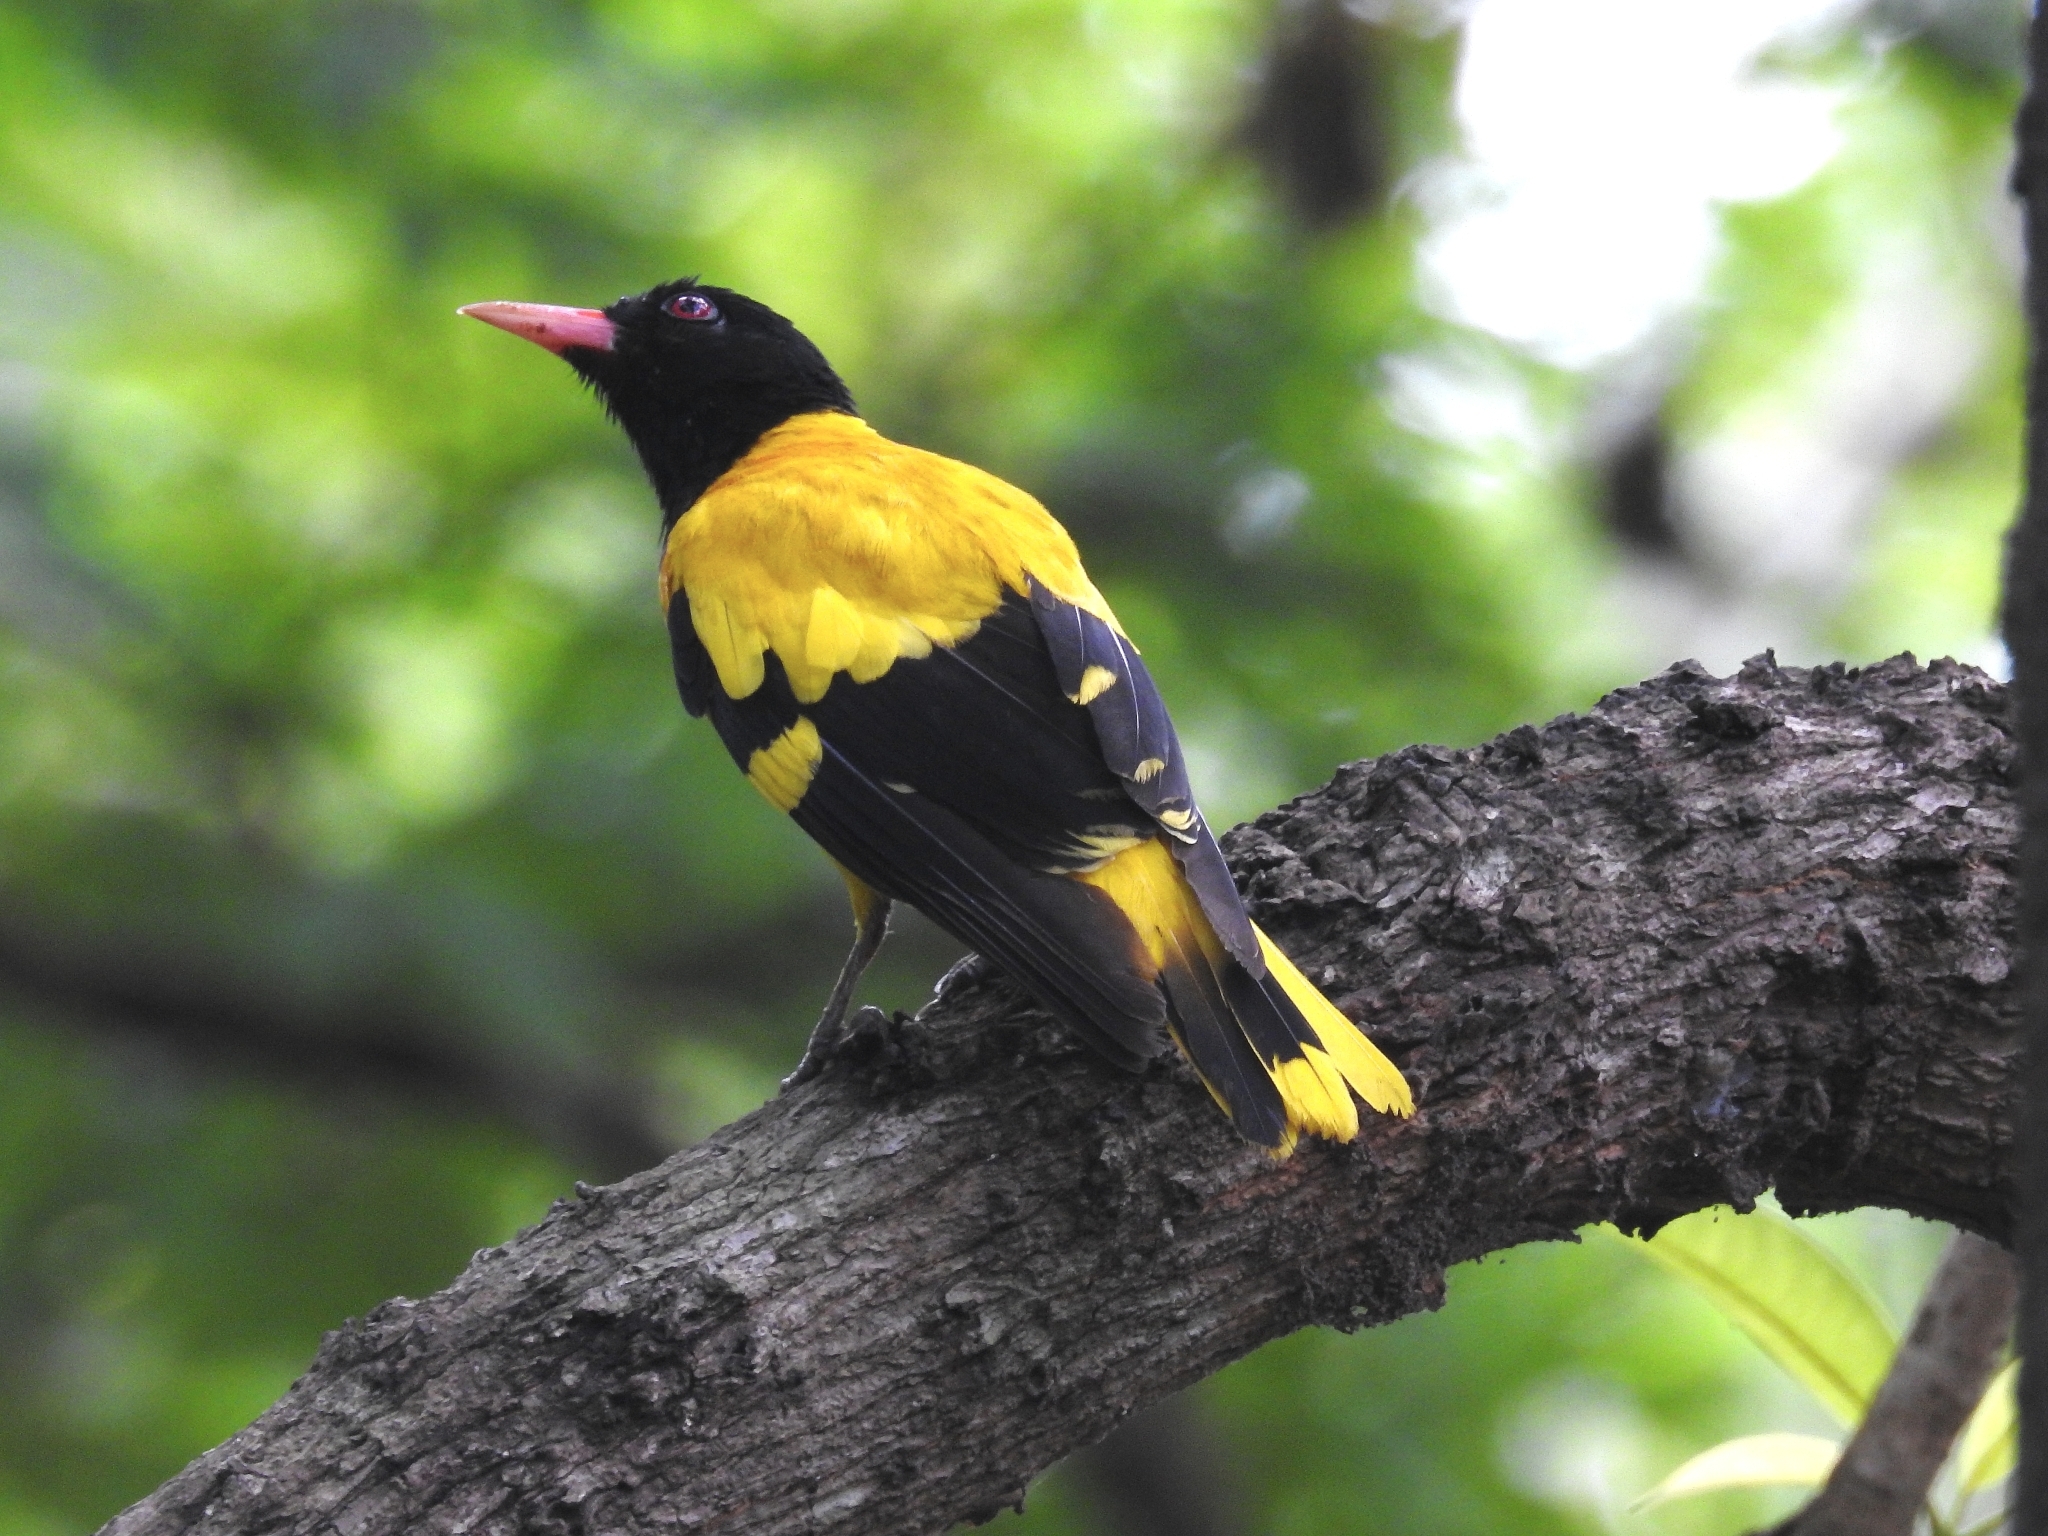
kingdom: Animalia
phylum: Chordata
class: Aves
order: Passeriformes
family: Oriolidae
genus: Oriolus
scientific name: Oriolus xanthornus
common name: Black-hooded oriole
